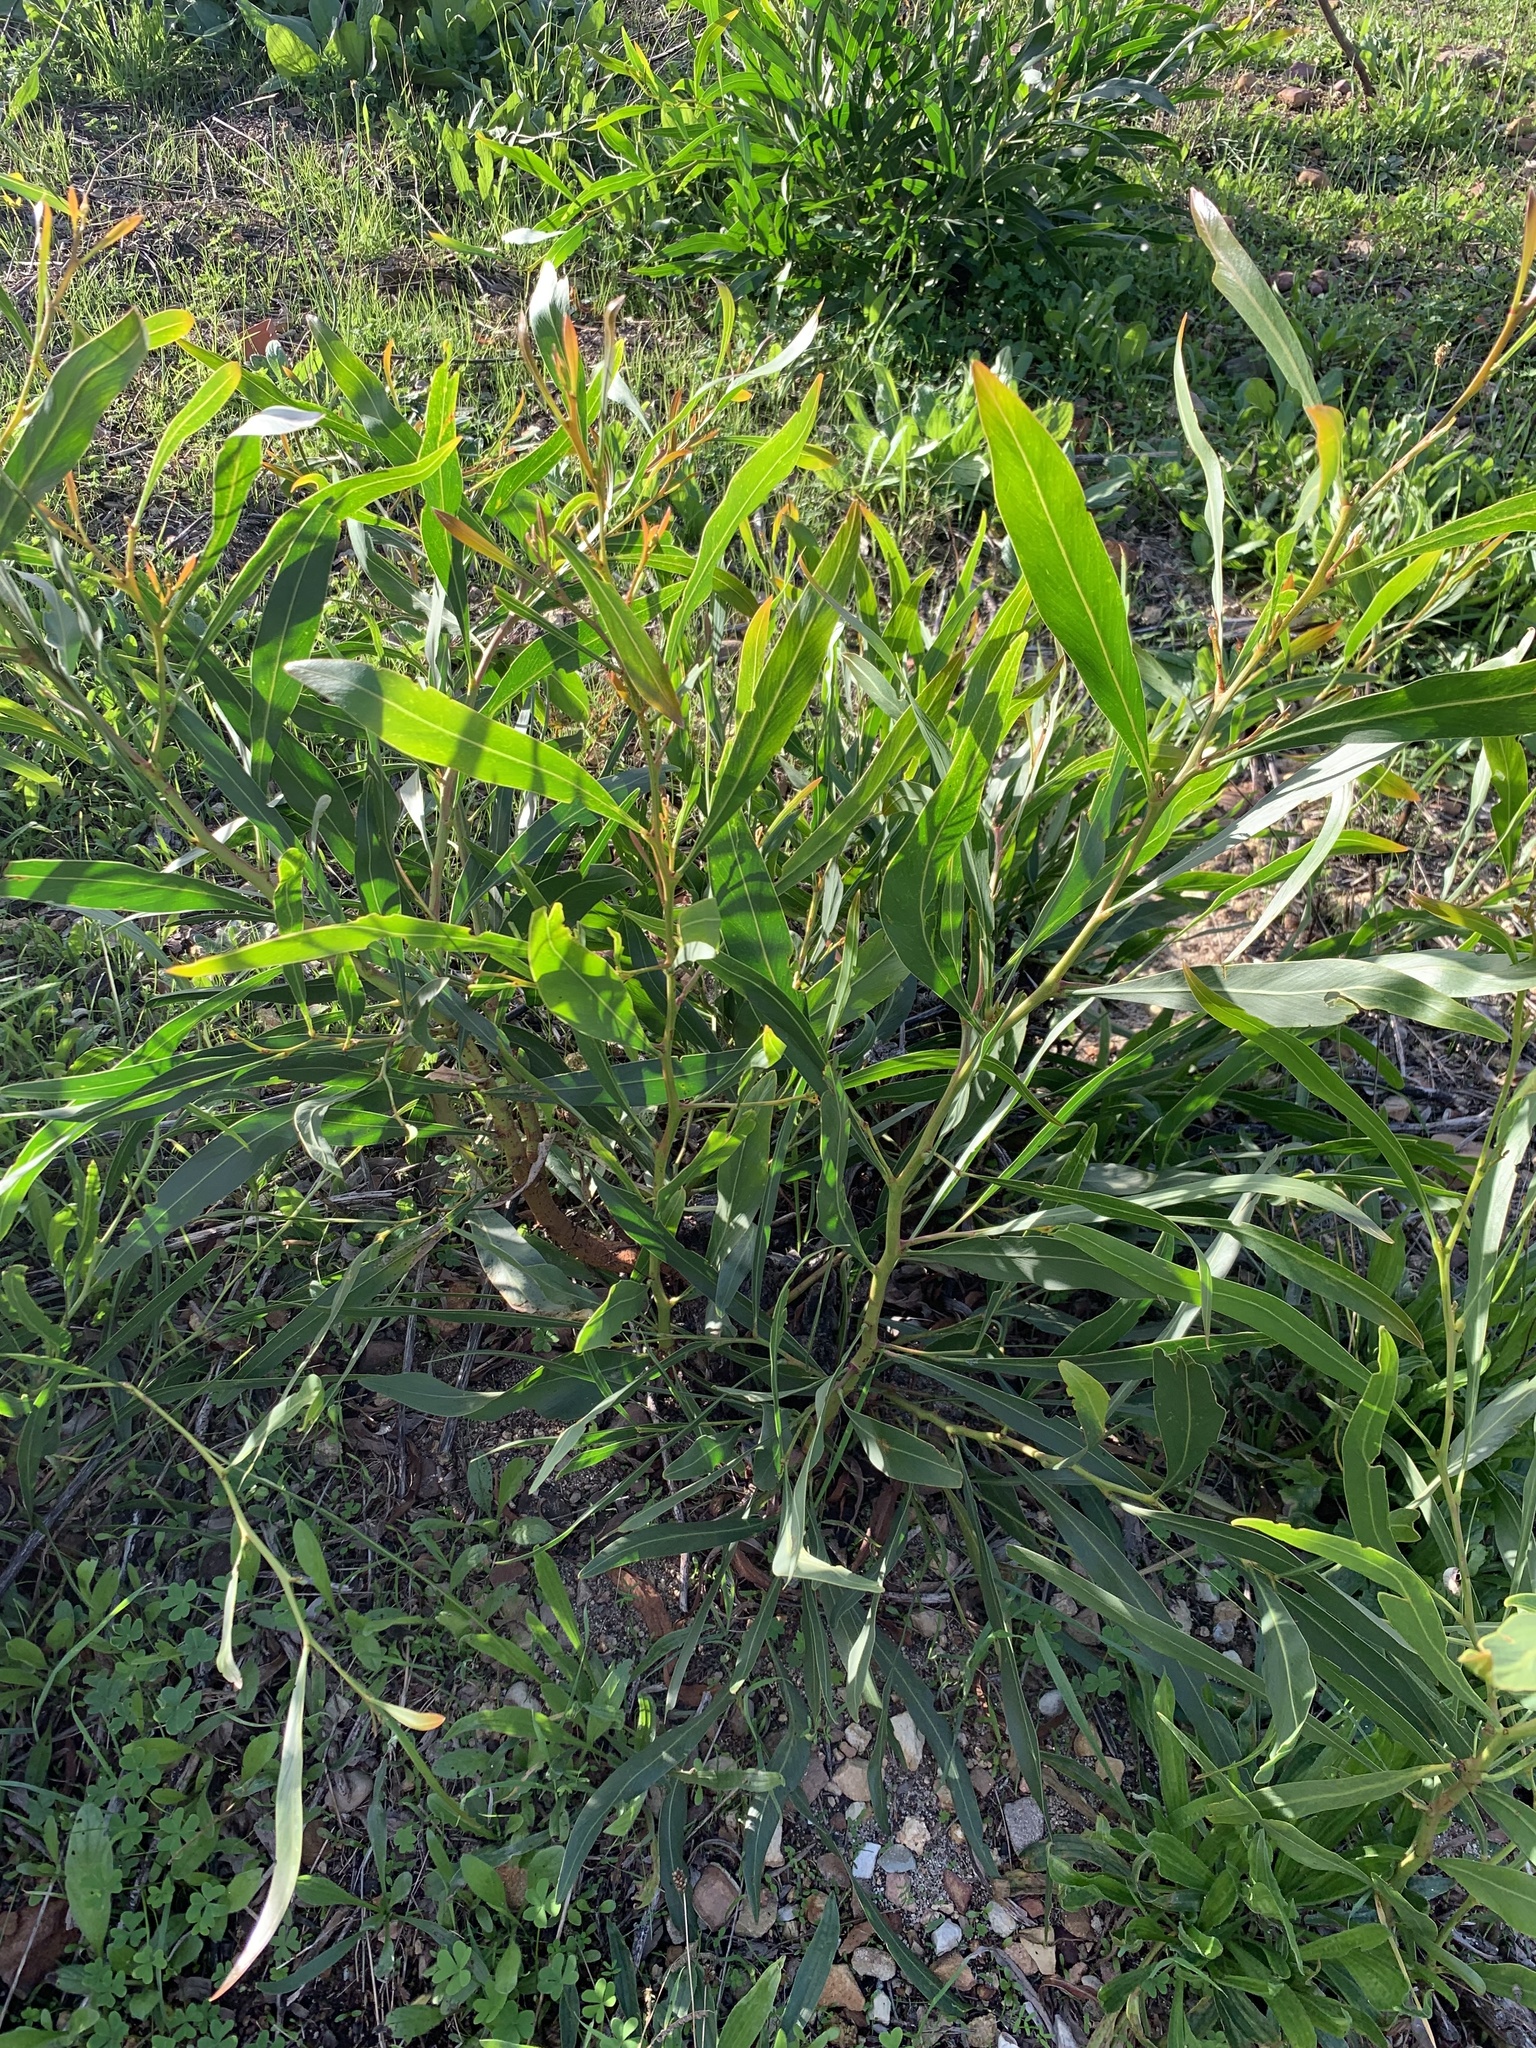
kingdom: Plantae
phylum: Tracheophyta
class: Magnoliopsida
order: Fabales
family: Fabaceae
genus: Acacia
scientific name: Acacia saligna
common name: Orange wattle
